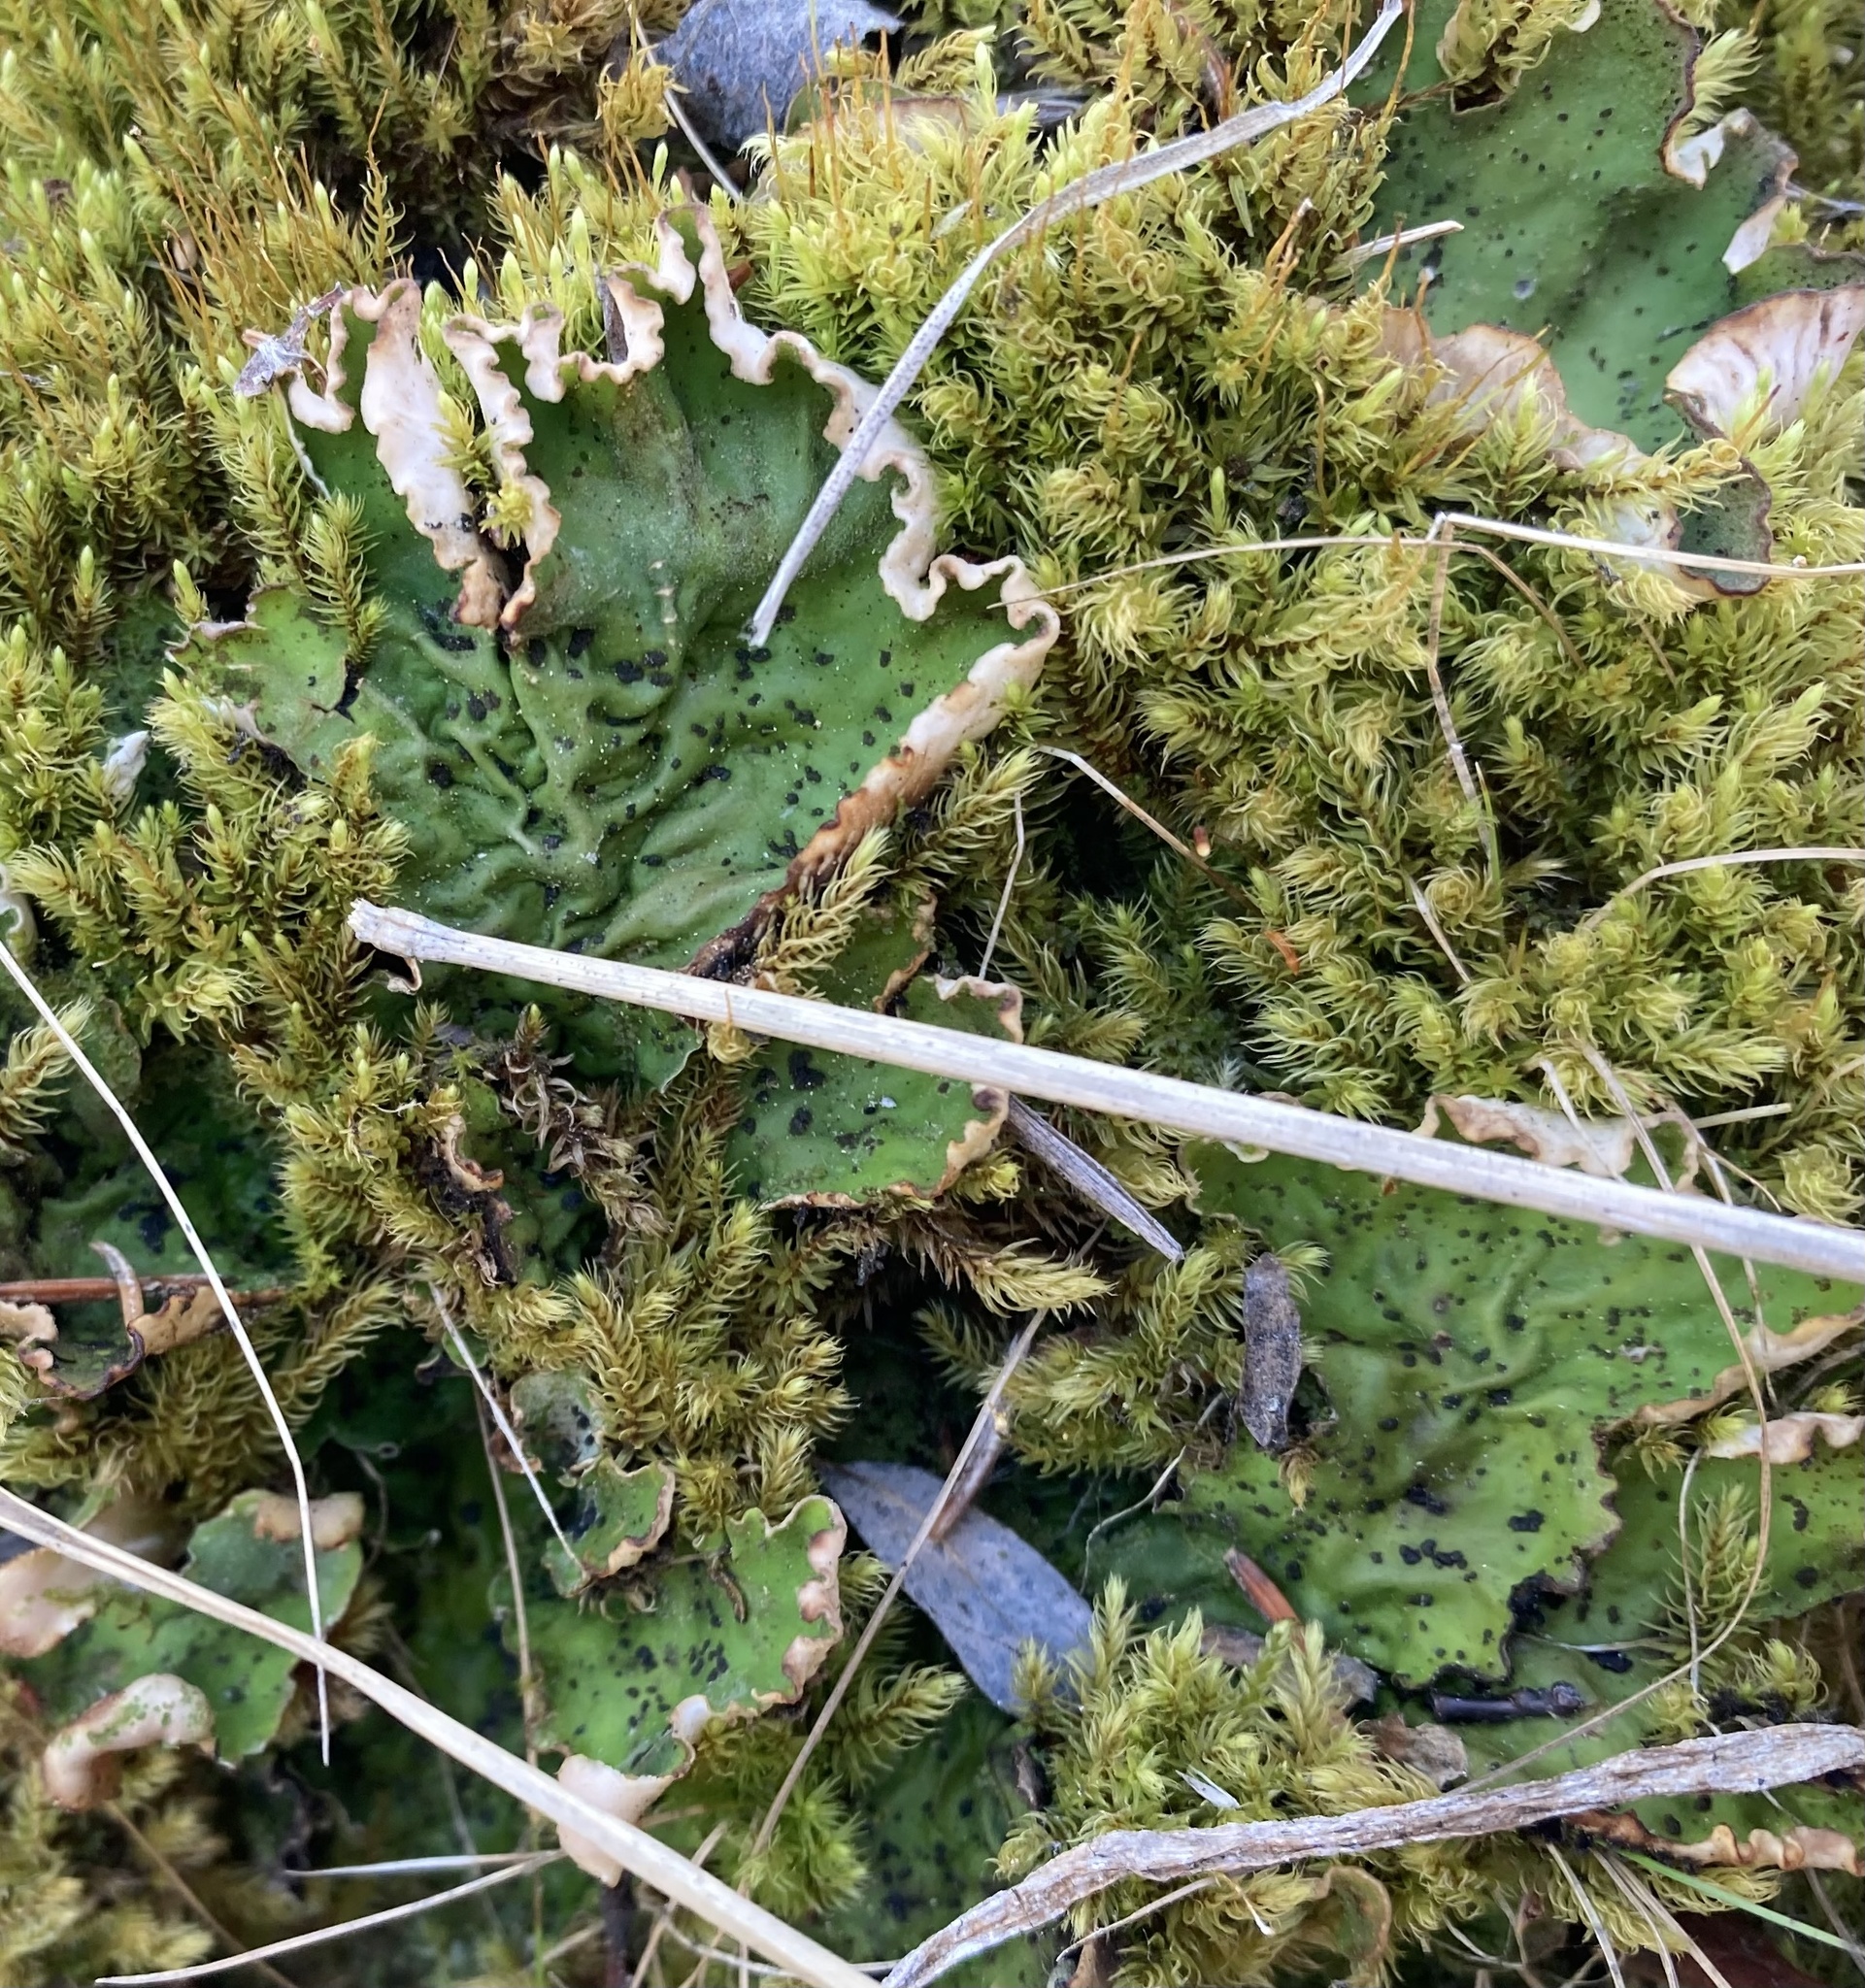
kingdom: Fungi
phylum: Ascomycota
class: Lecanoromycetes
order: Peltigerales
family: Peltigeraceae
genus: Peltigera
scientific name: Peltigera aphthosa
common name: Common freckle pelt lichen
